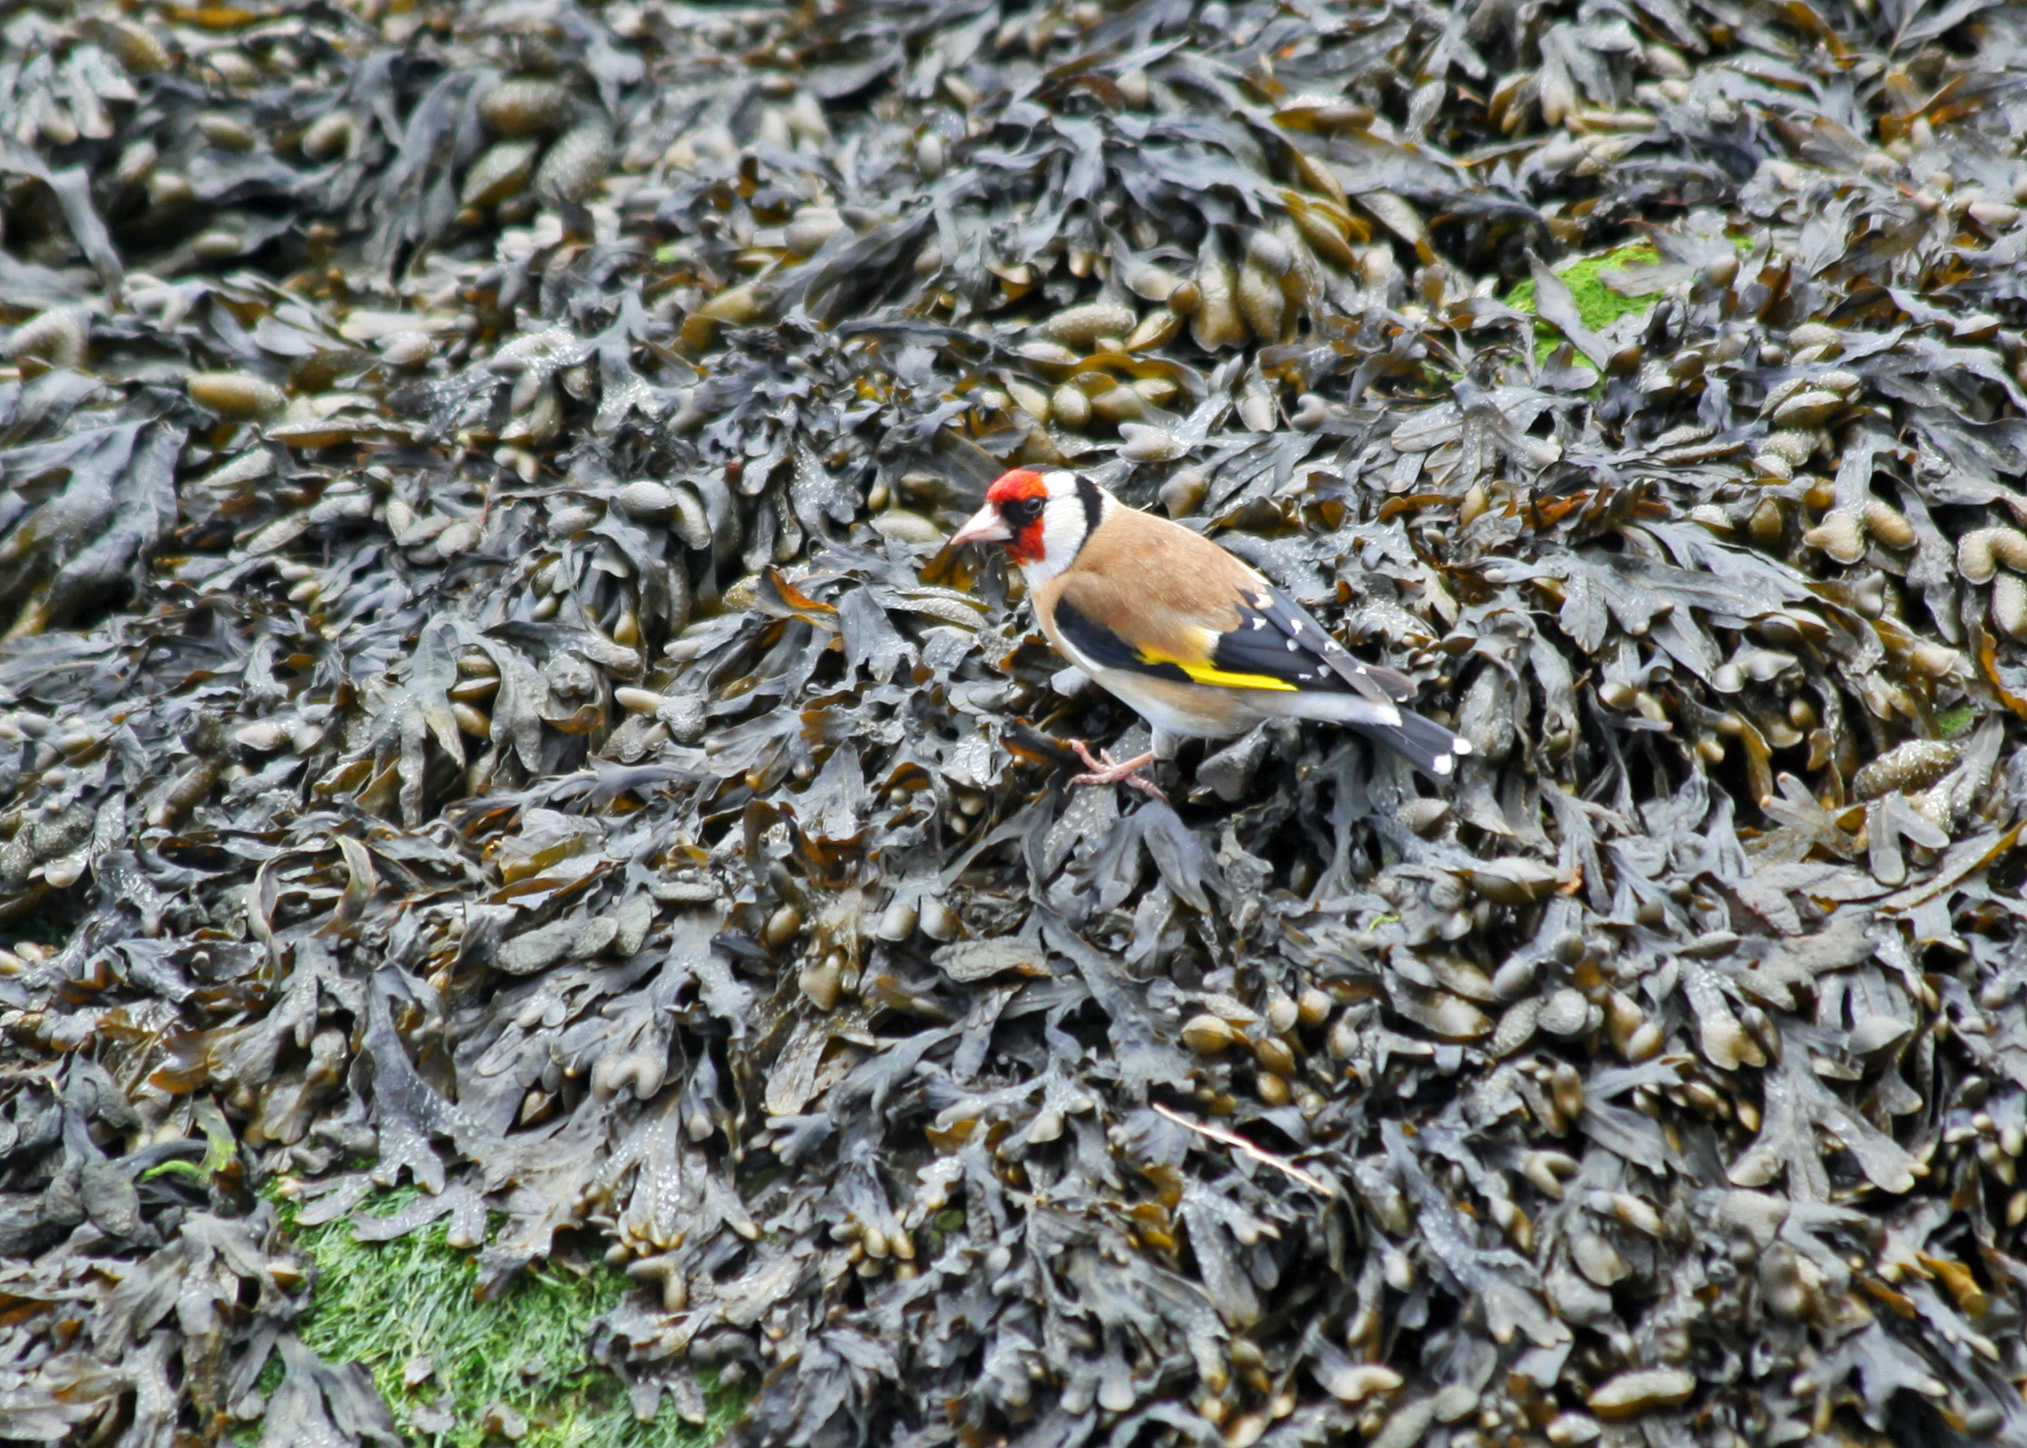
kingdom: Animalia
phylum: Chordata
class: Aves
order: Passeriformes
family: Fringillidae
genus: Carduelis
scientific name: Carduelis carduelis
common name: European goldfinch
